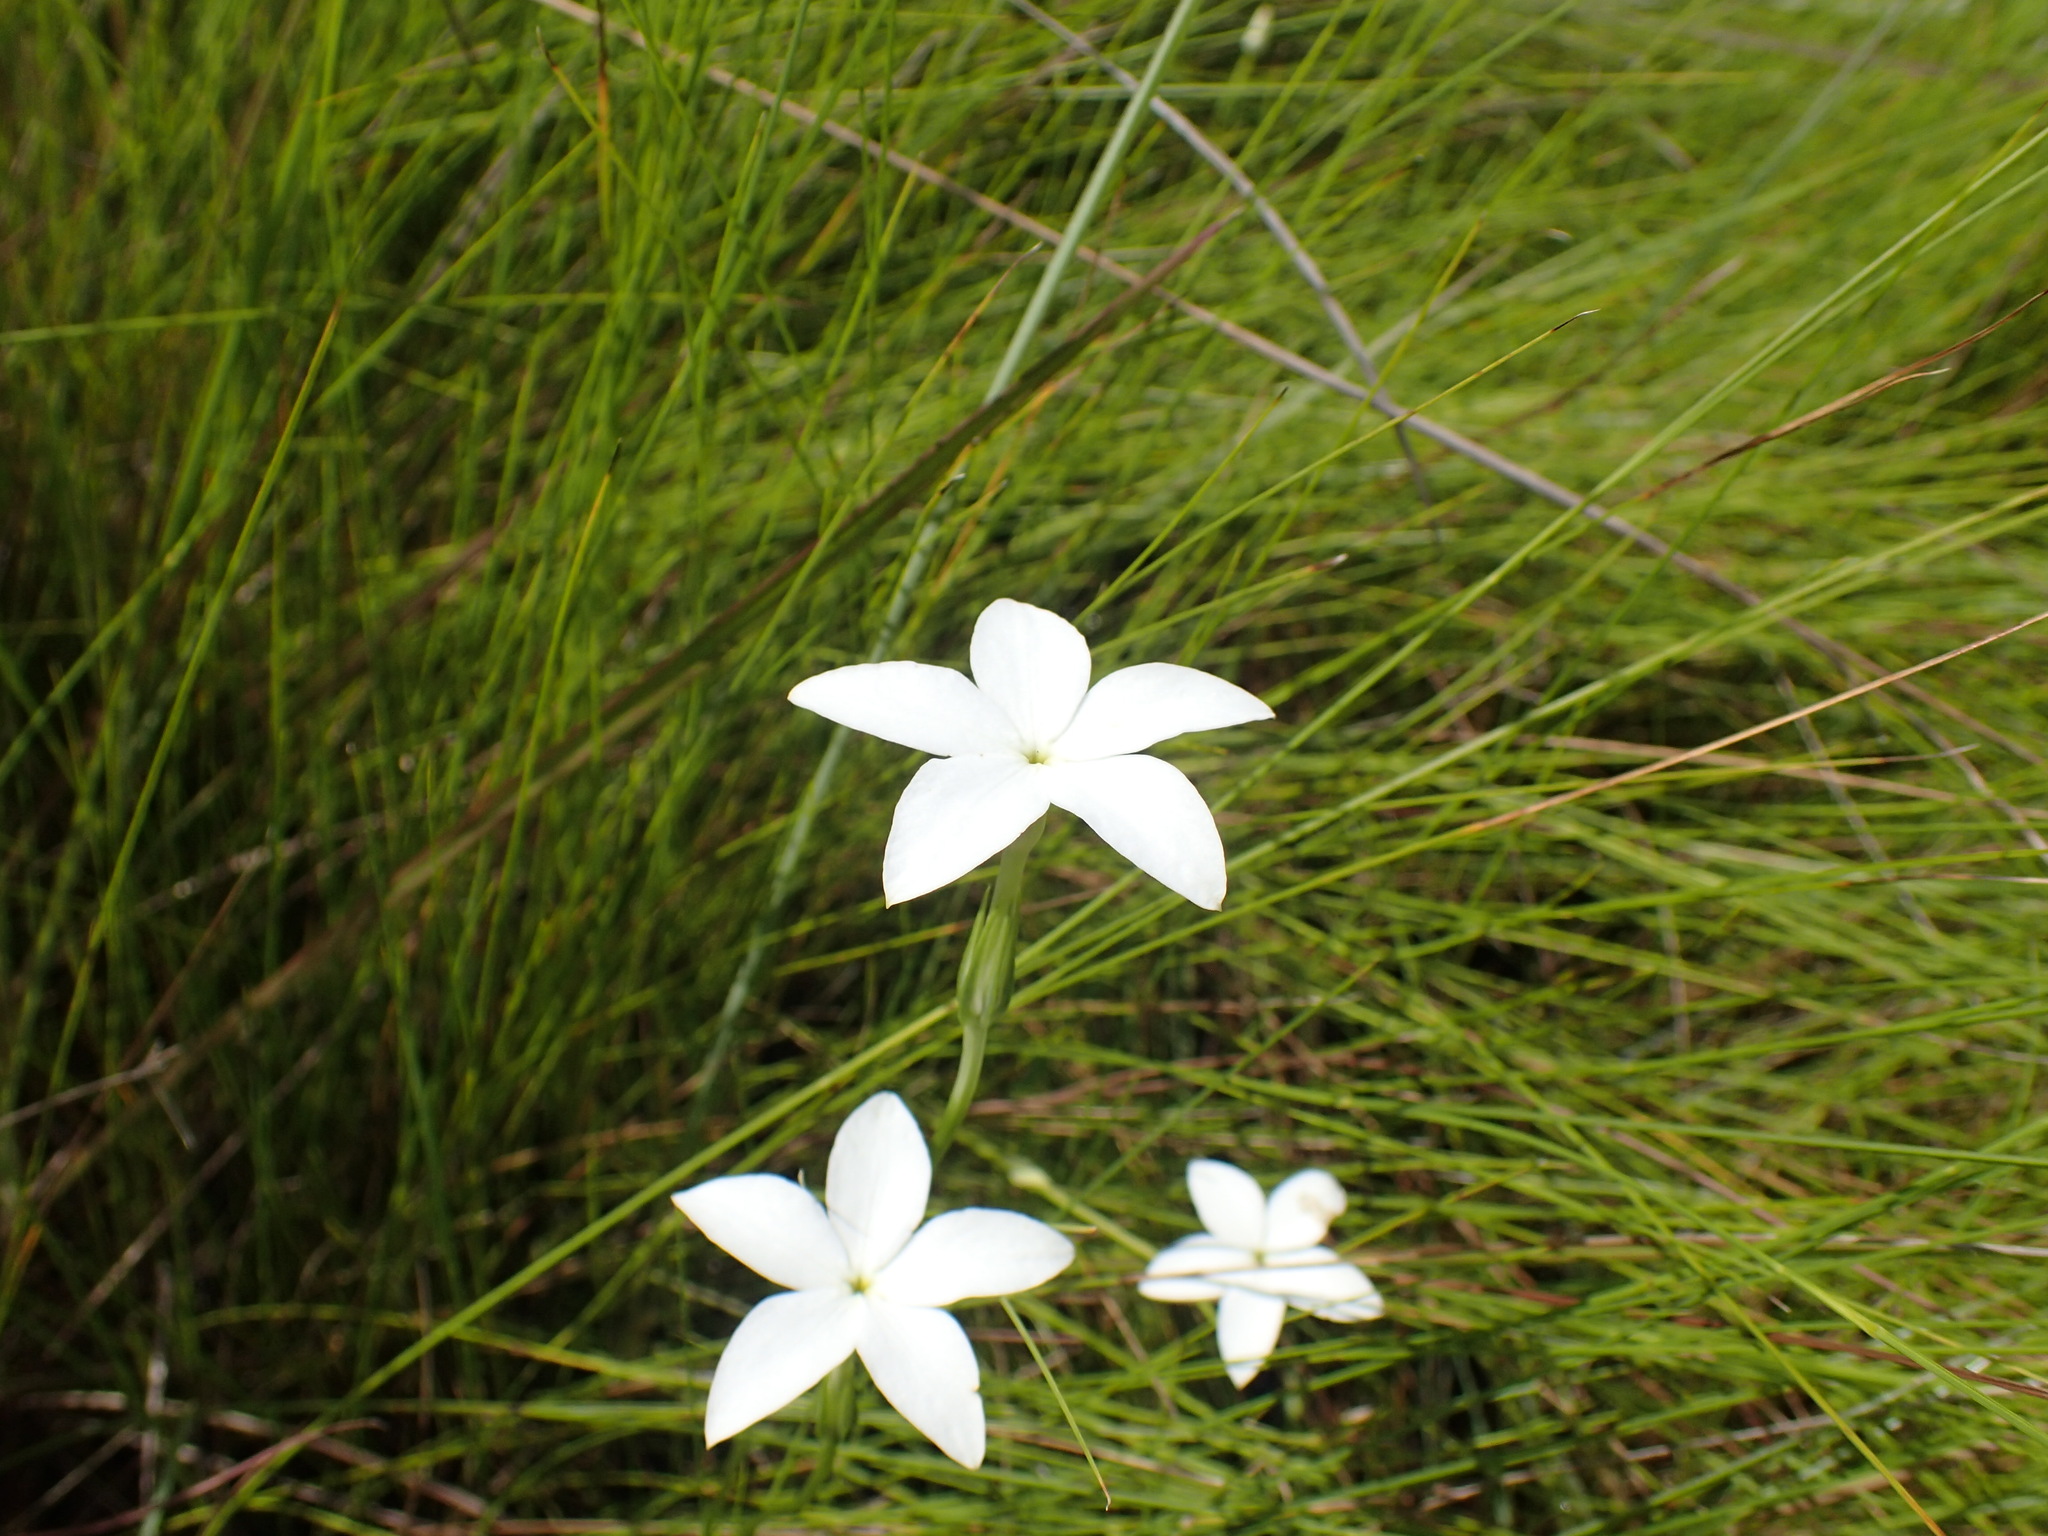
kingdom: Plantae
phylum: Tracheophyta
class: Magnoliopsida
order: Gentianales
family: Gentianaceae
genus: Exochaenium
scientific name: Exochaenium teuszii
